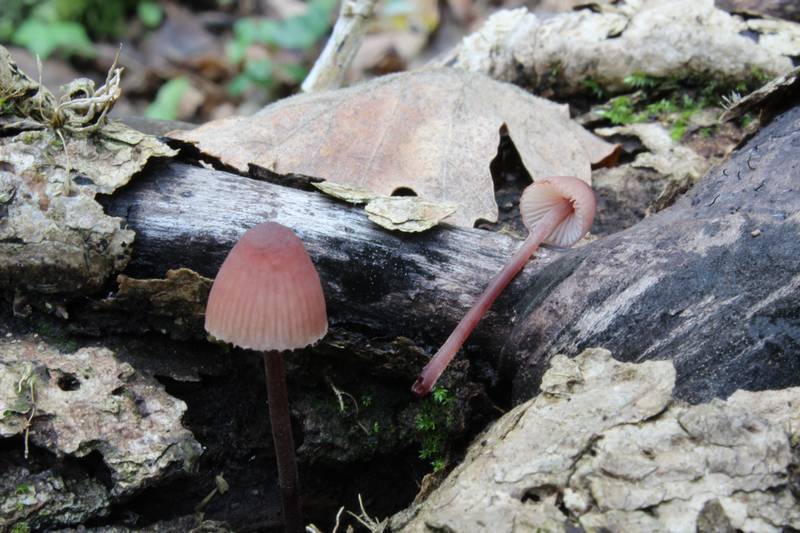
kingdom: Fungi
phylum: Basidiomycota
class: Agaricomycetes
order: Agaricales
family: Mycenaceae
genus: Mycena
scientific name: Mycena haematopus
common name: Burgundydrop bonnet
